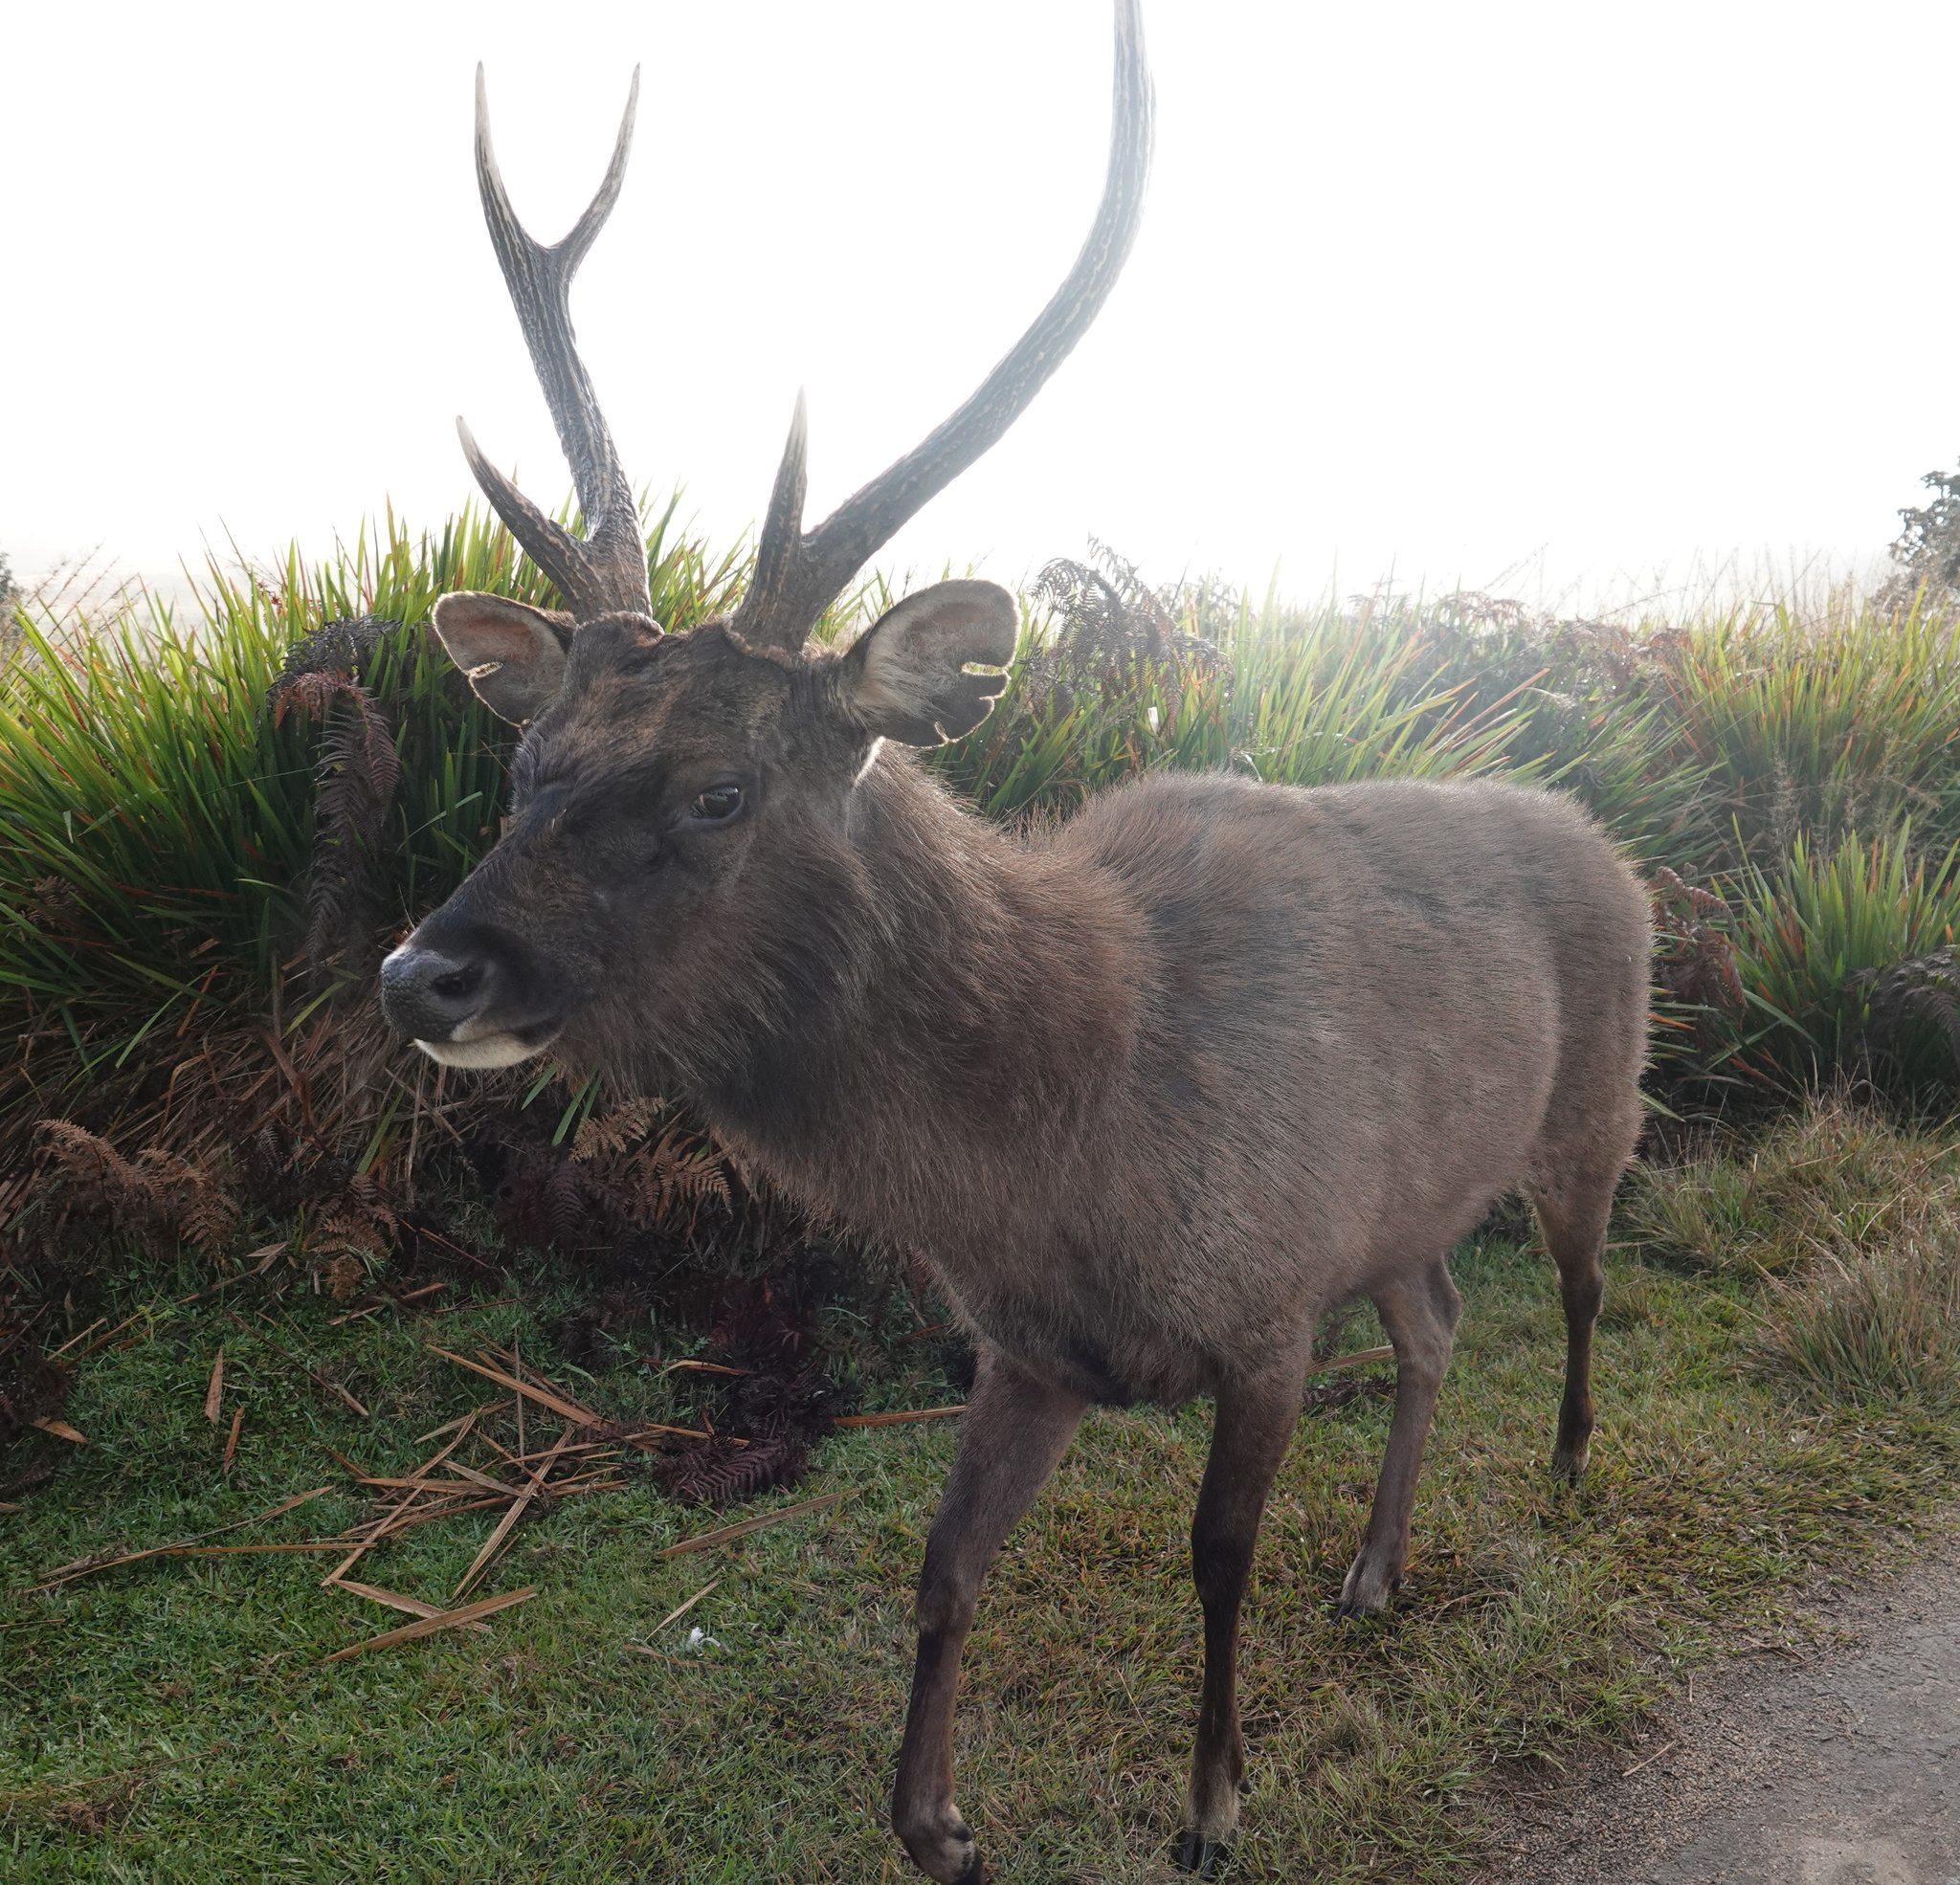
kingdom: Animalia
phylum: Chordata
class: Mammalia
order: Artiodactyla
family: Cervidae
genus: Rusa
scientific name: Rusa unicolor
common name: Sambar
